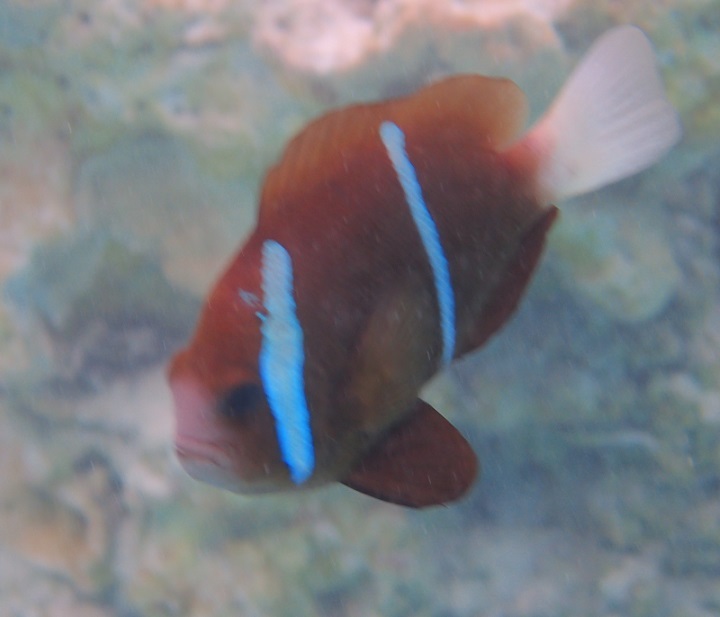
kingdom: Animalia
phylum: Chordata
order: Perciformes
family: Pomacentridae
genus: Amphiprion
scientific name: Amphiprion akindynos
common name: Barrier reef anemonefish
